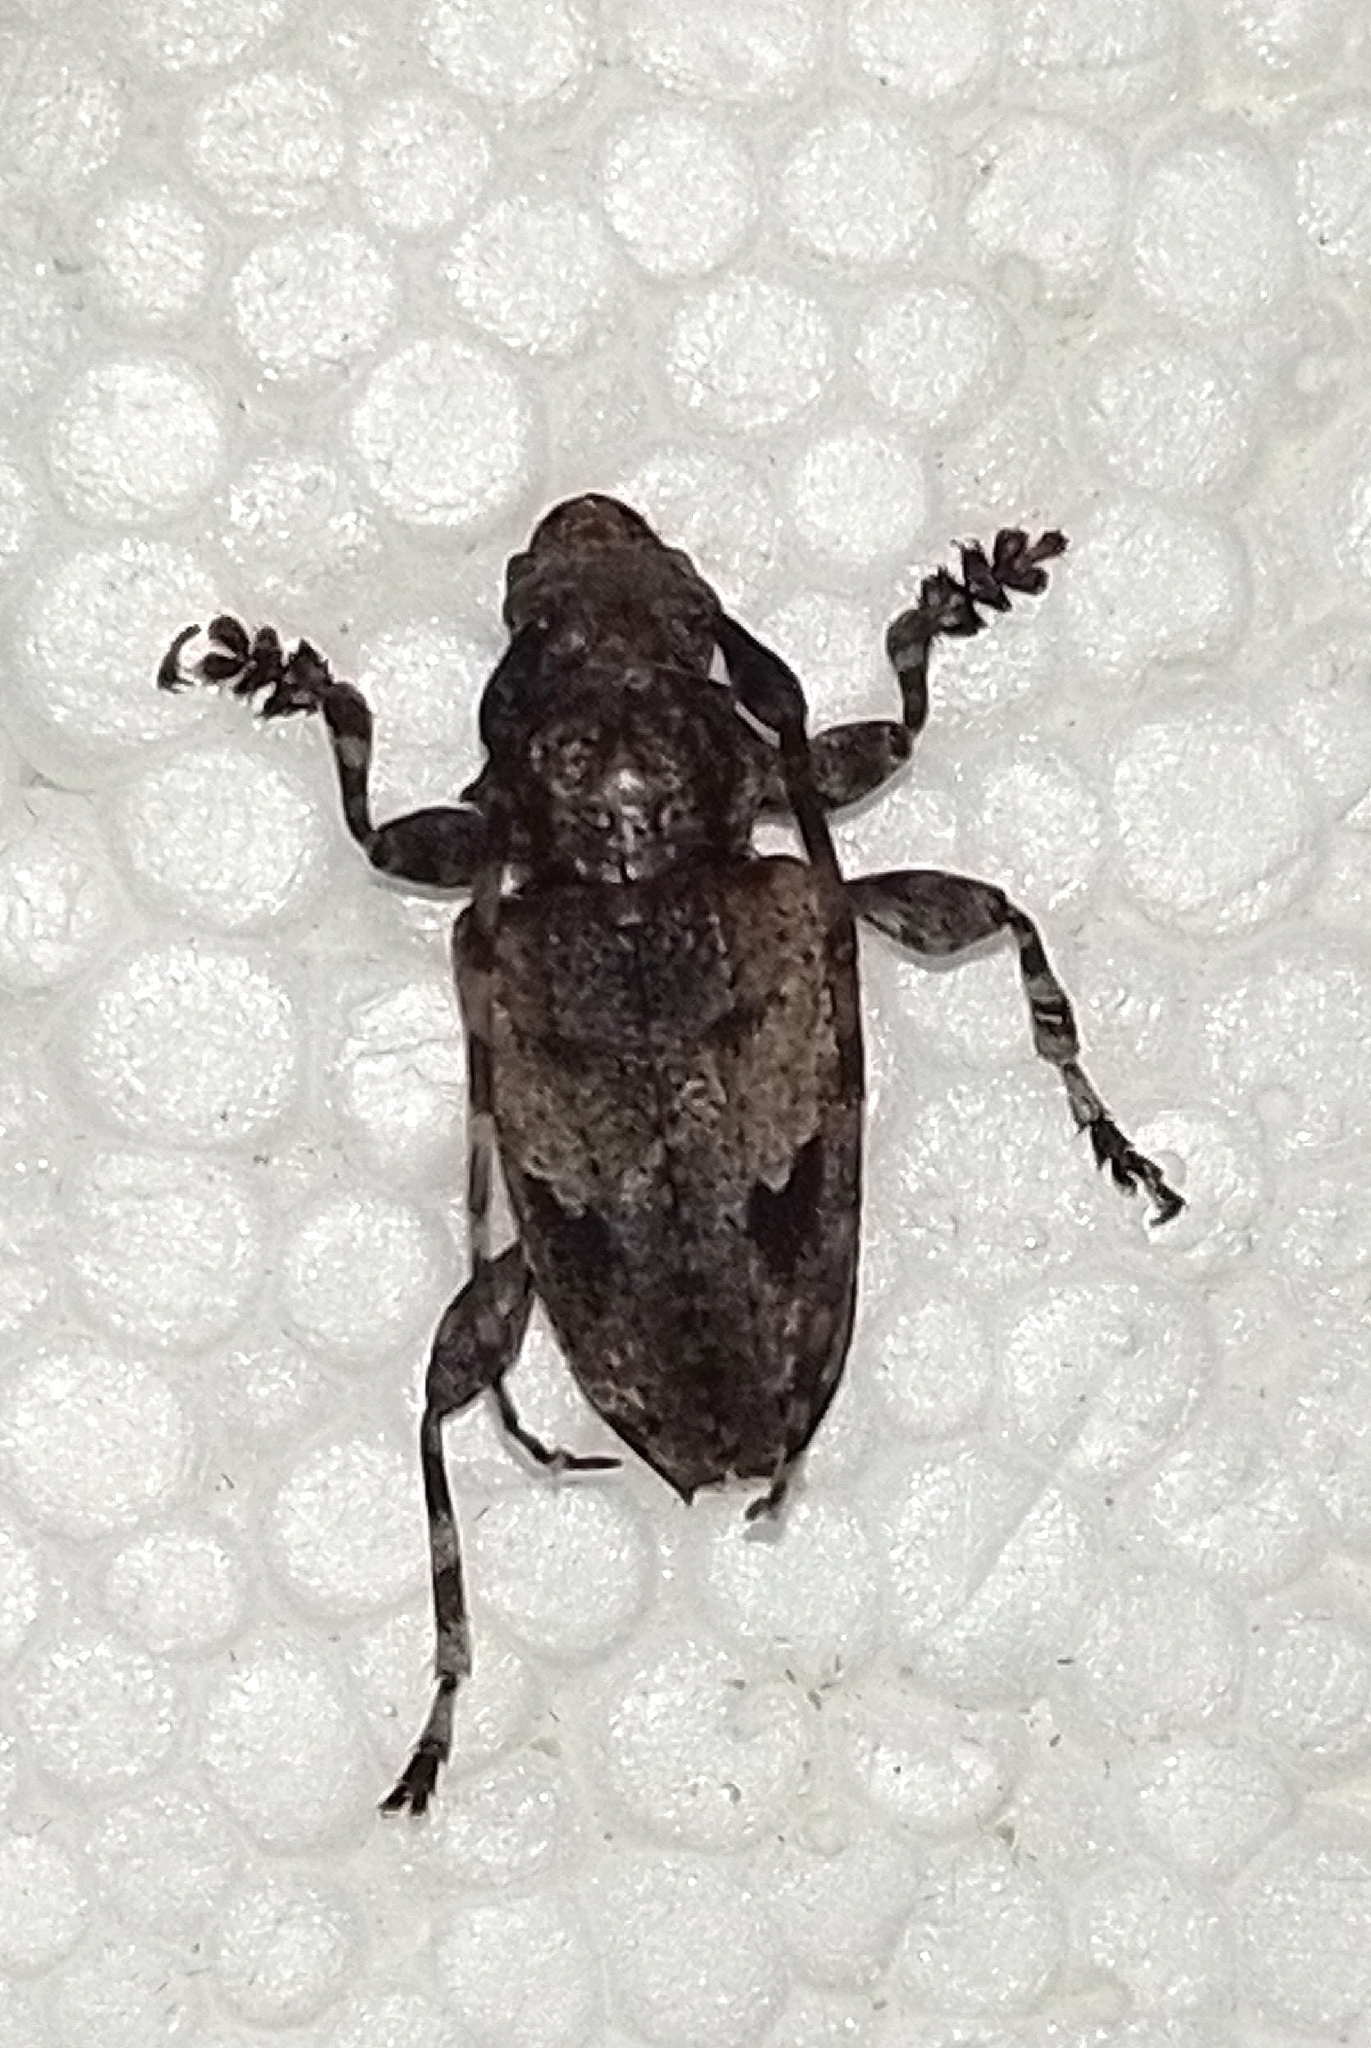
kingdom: Animalia
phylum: Arthropoda
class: Insecta
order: Coleoptera
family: Cerambycidae
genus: Psapharochrus
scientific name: Psapharochrus jaspideus
